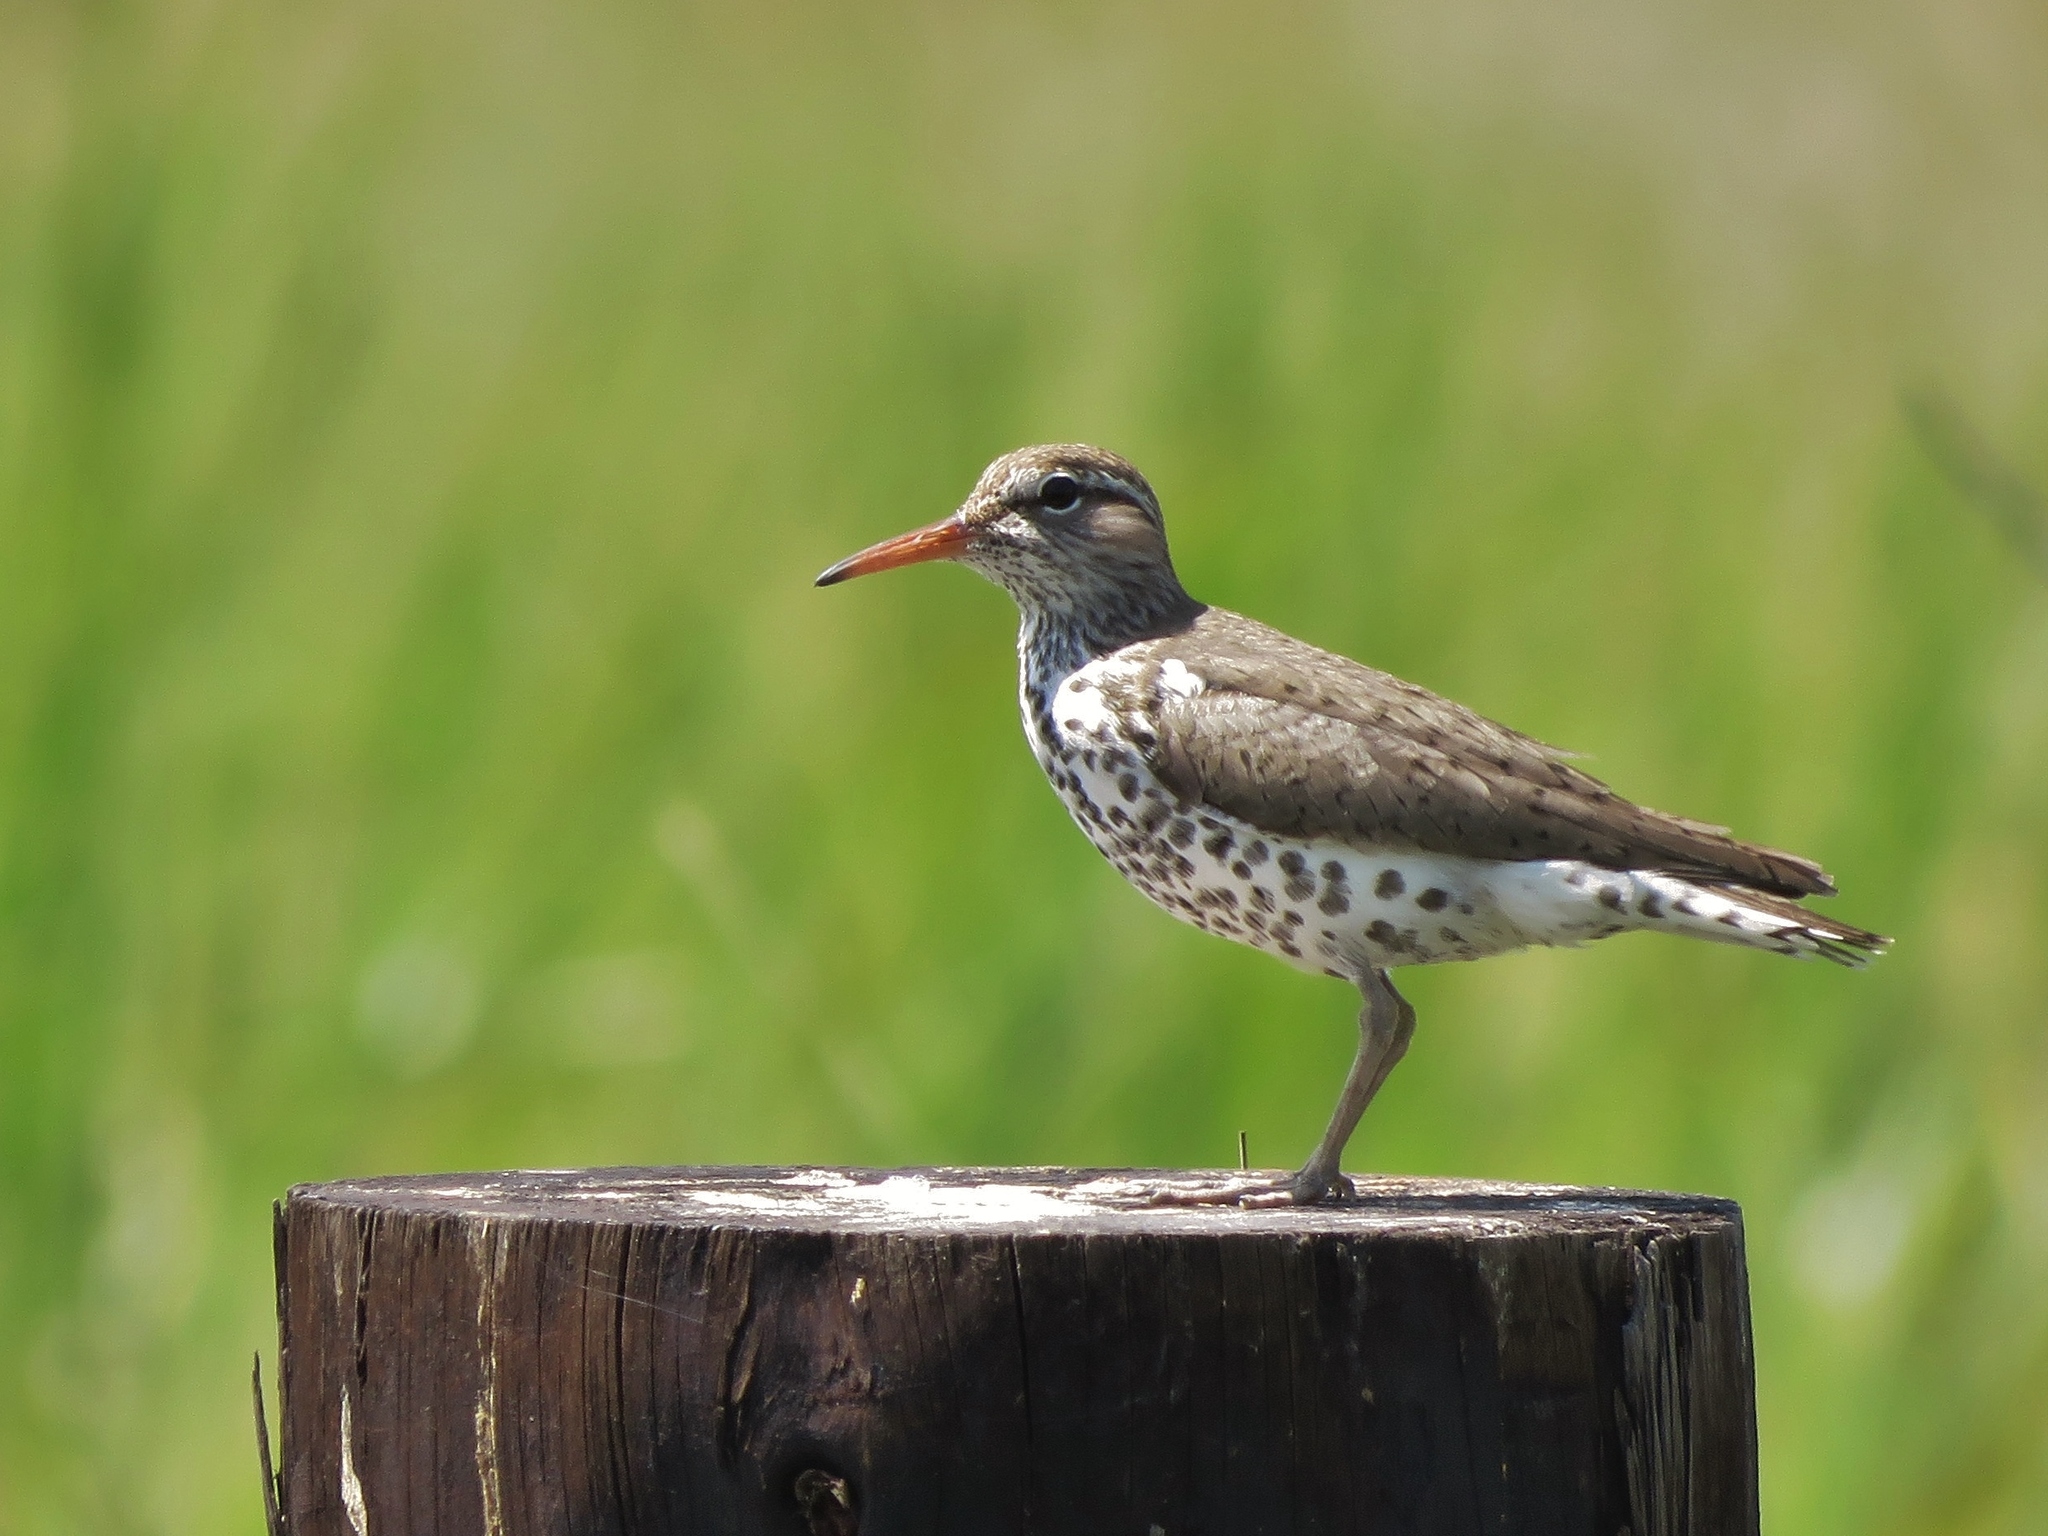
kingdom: Animalia
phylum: Chordata
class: Aves
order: Charadriiformes
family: Scolopacidae
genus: Actitis
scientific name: Actitis macularius
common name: Spotted sandpiper
